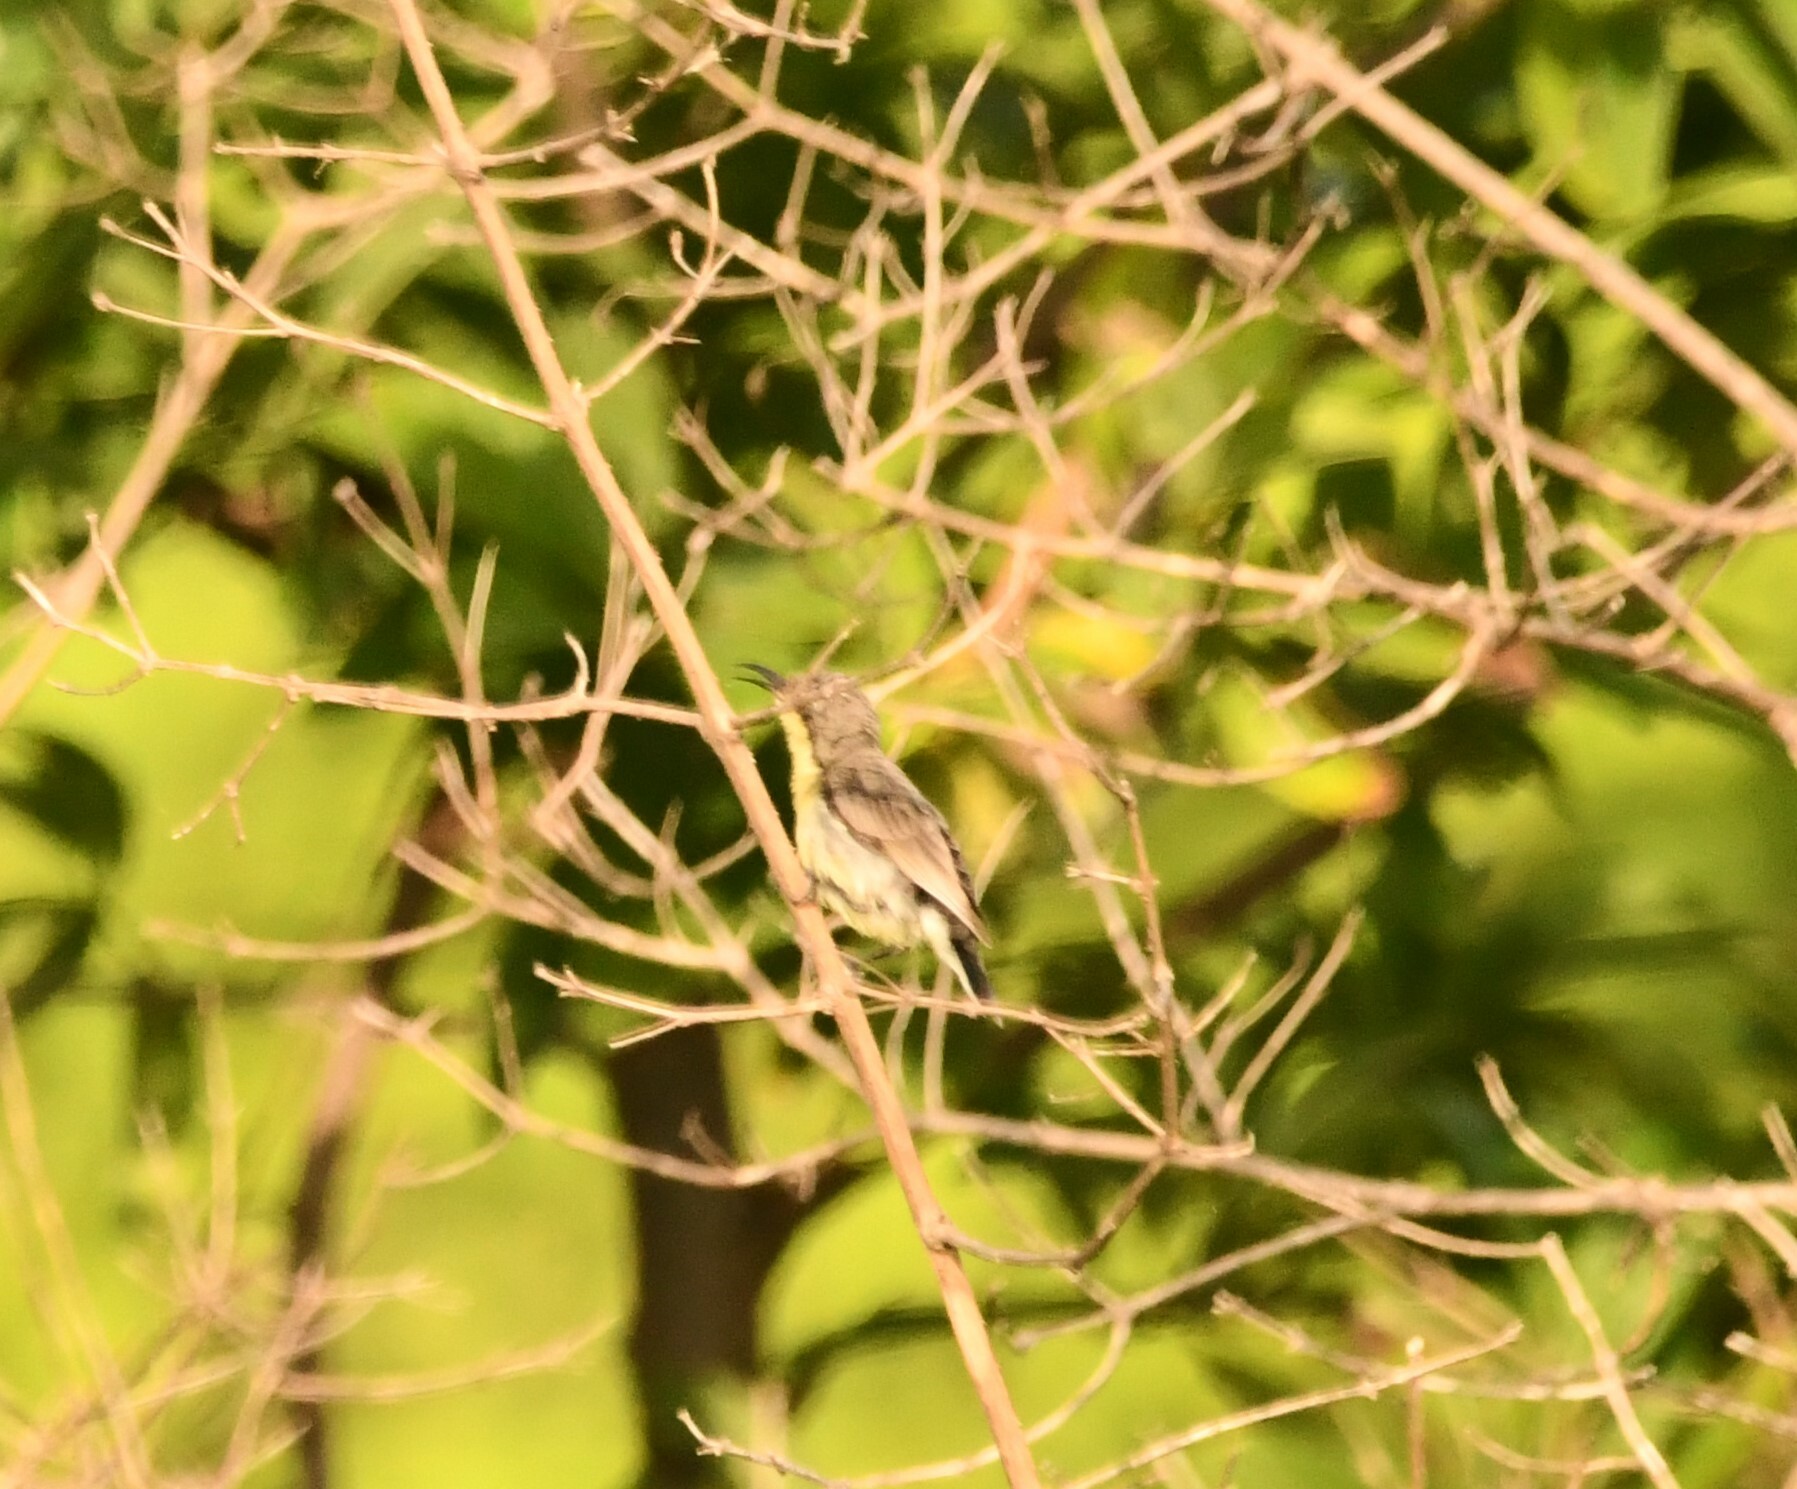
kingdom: Animalia
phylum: Chordata
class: Aves
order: Passeriformes
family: Nectariniidae
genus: Cinnyris
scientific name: Cinnyris asiaticus
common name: Purple sunbird
